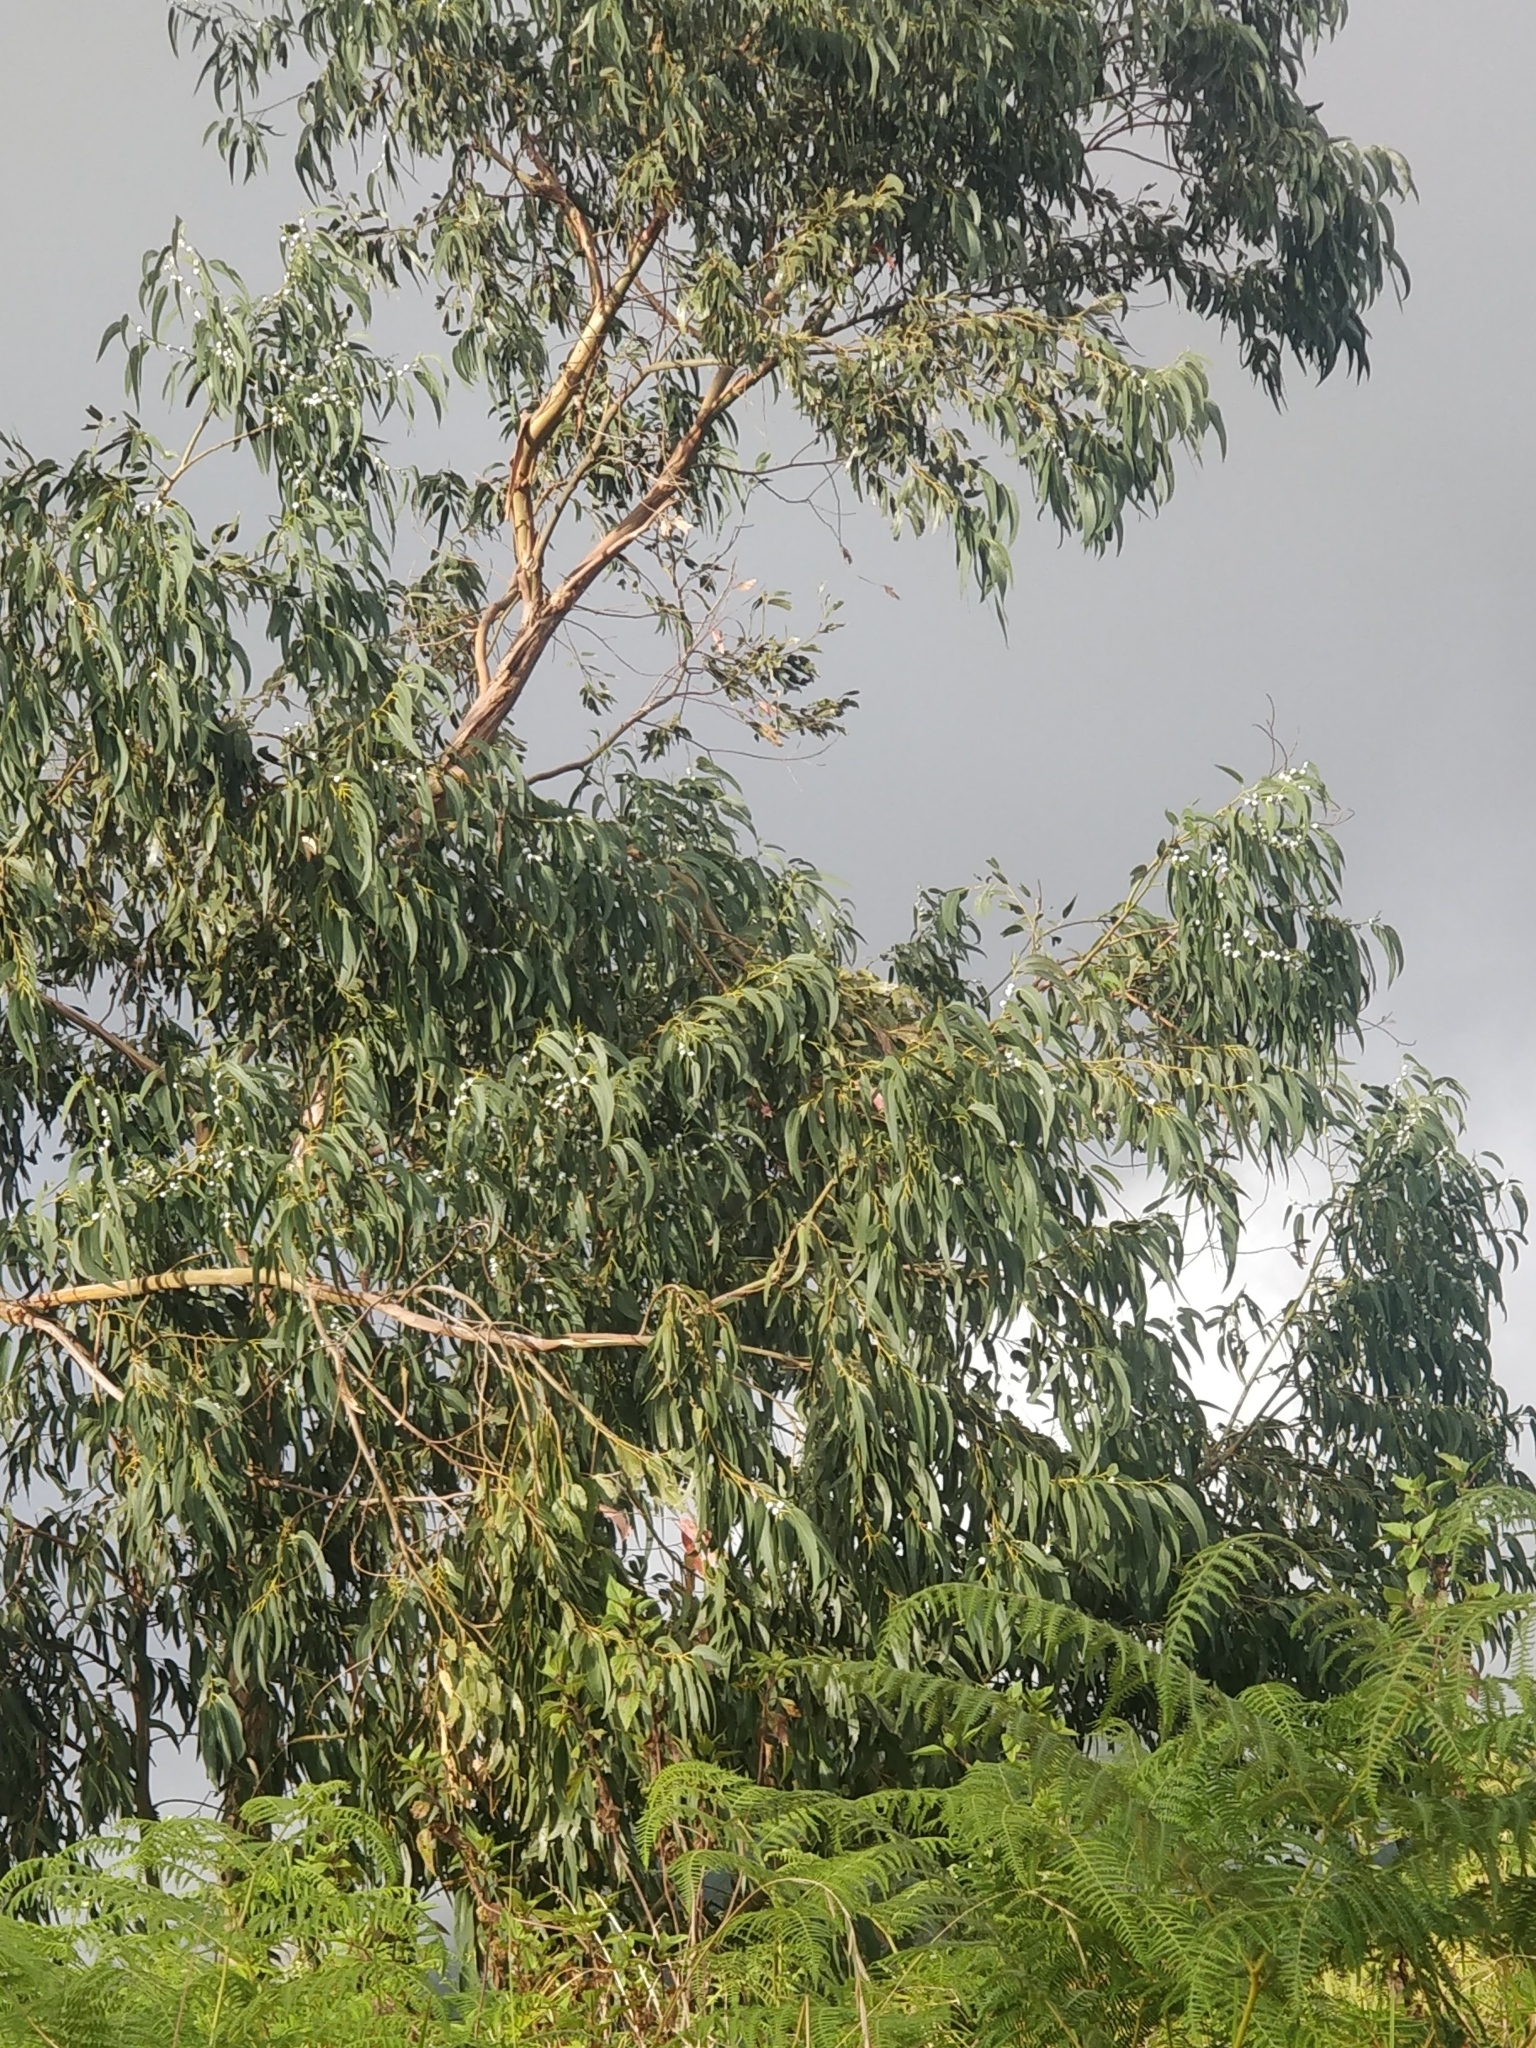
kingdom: Plantae
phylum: Tracheophyta
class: Magnoliopsida
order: Myrtales
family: Myrtaceae
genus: Eucalyptus
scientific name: Eucalyptus globulus
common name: Southern blue-gum
